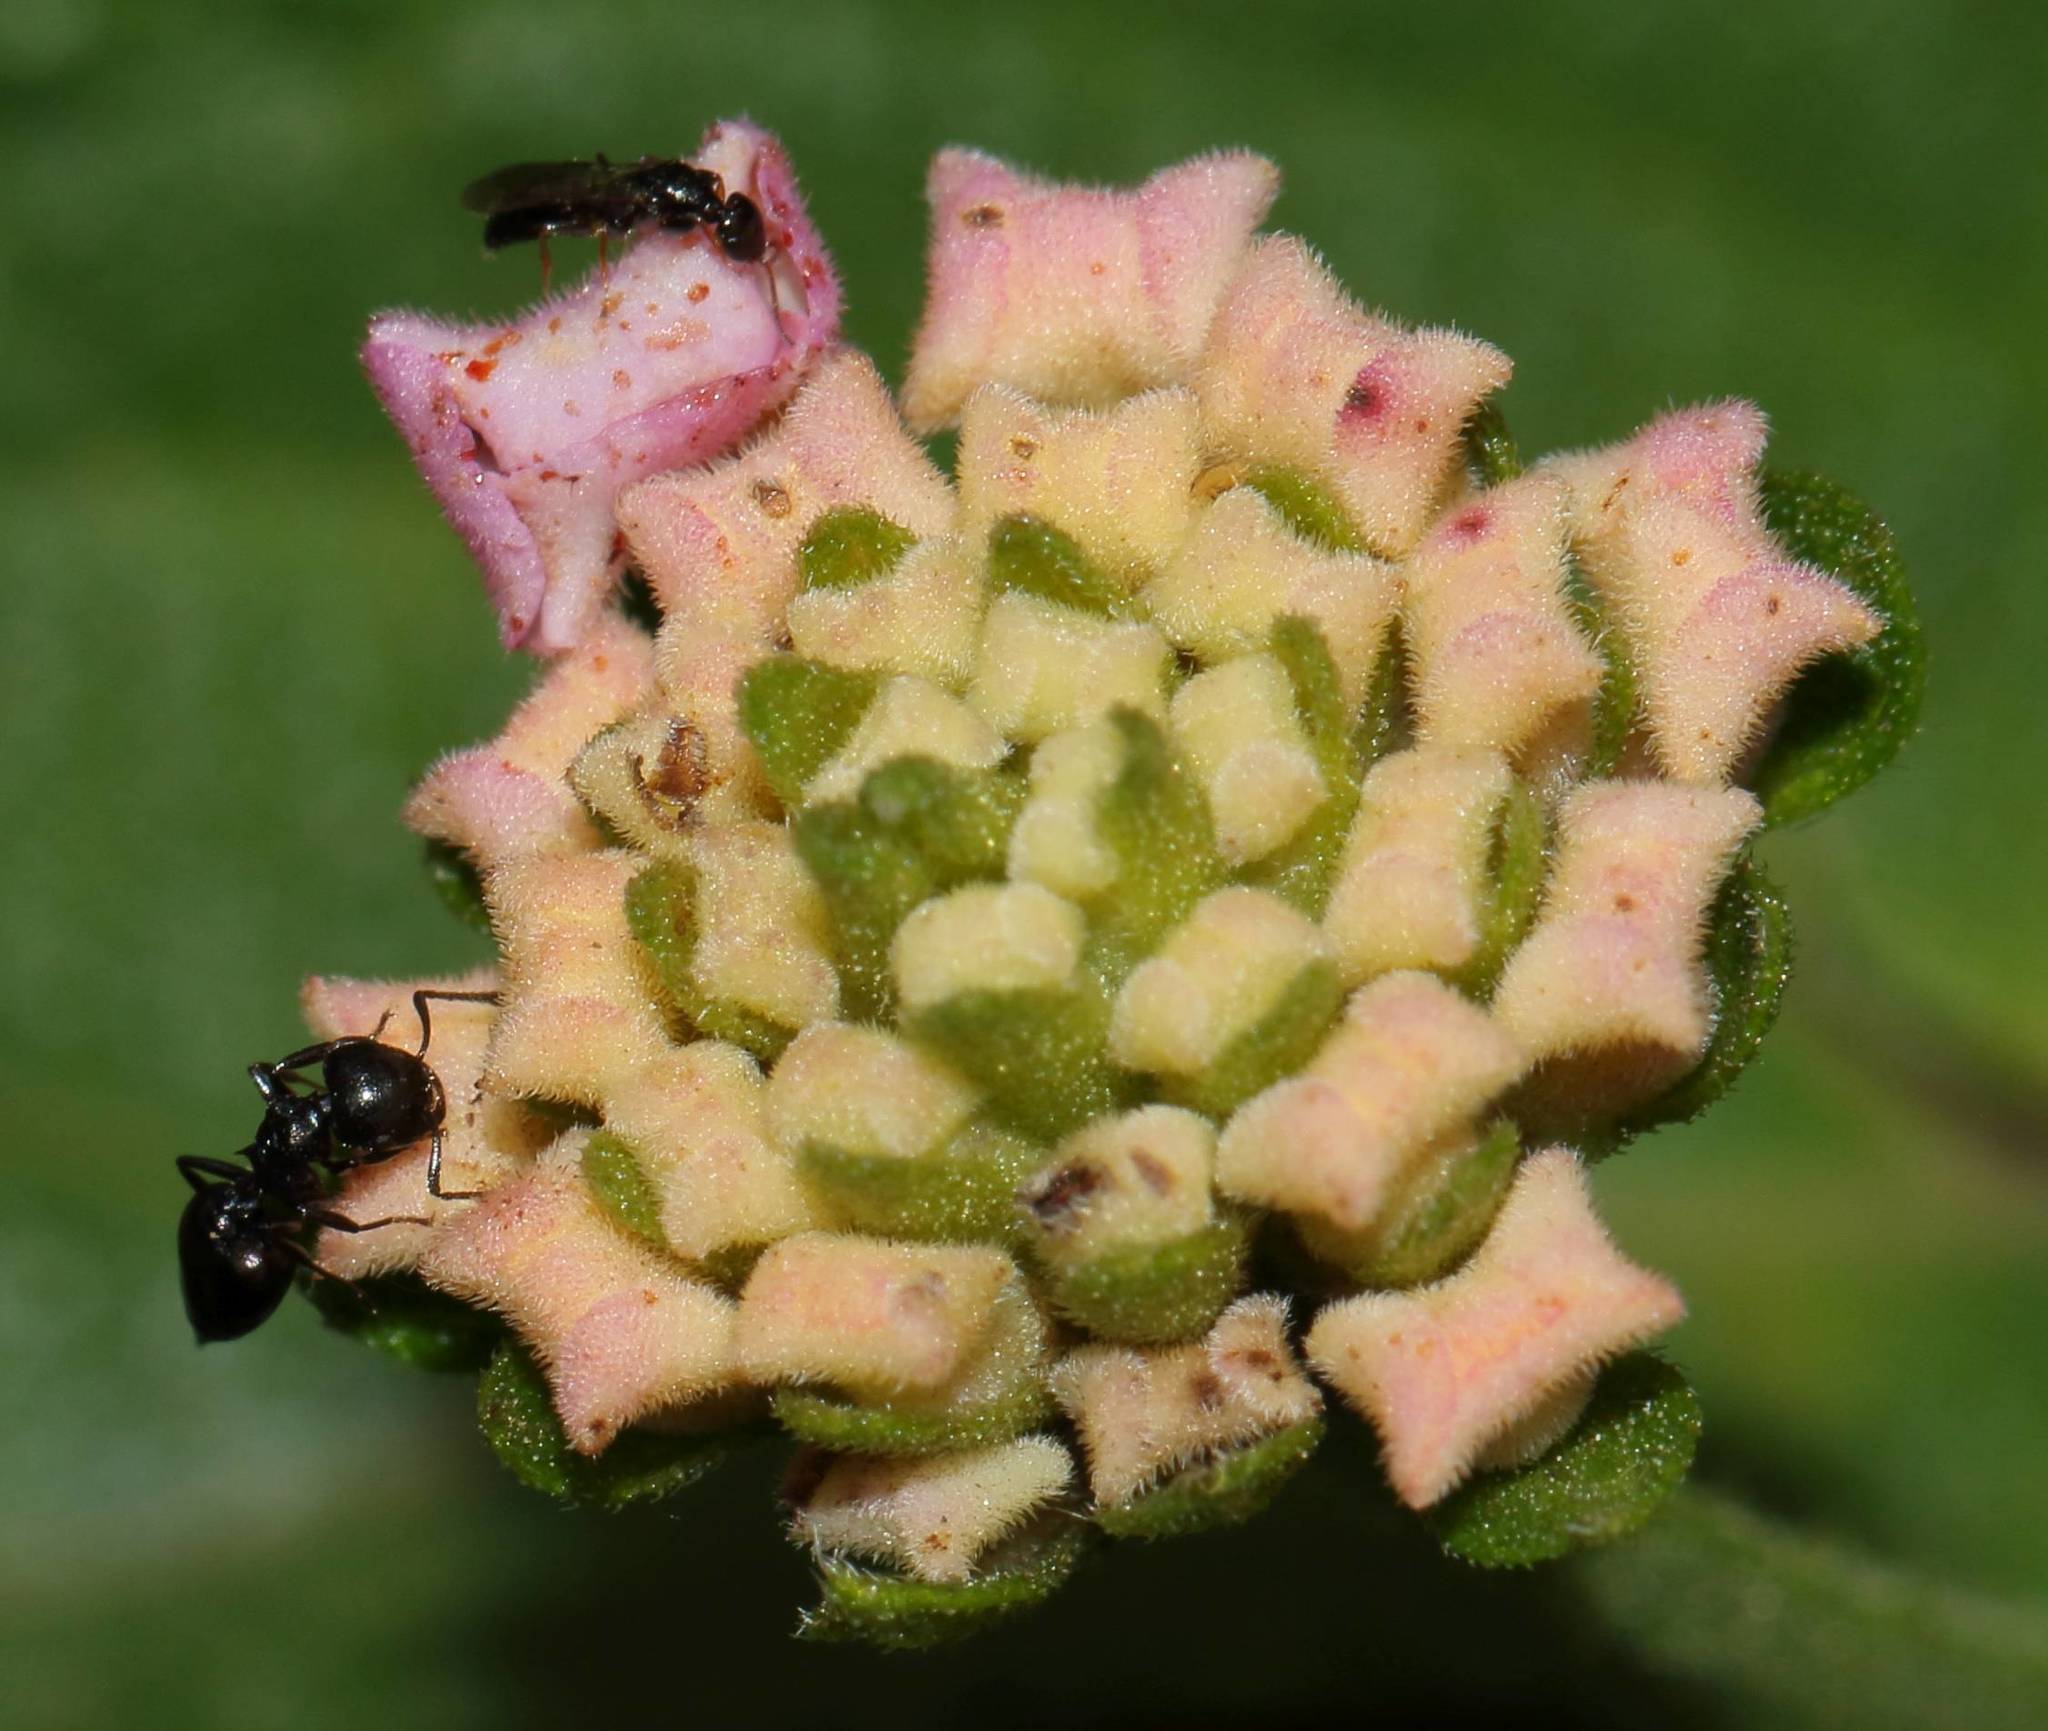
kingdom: Plantae
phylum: Tracheophyta
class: Magnoliopsida
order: Lamiales
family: Verbenaceae
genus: Lantana
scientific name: Lantana camara
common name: Lantana
